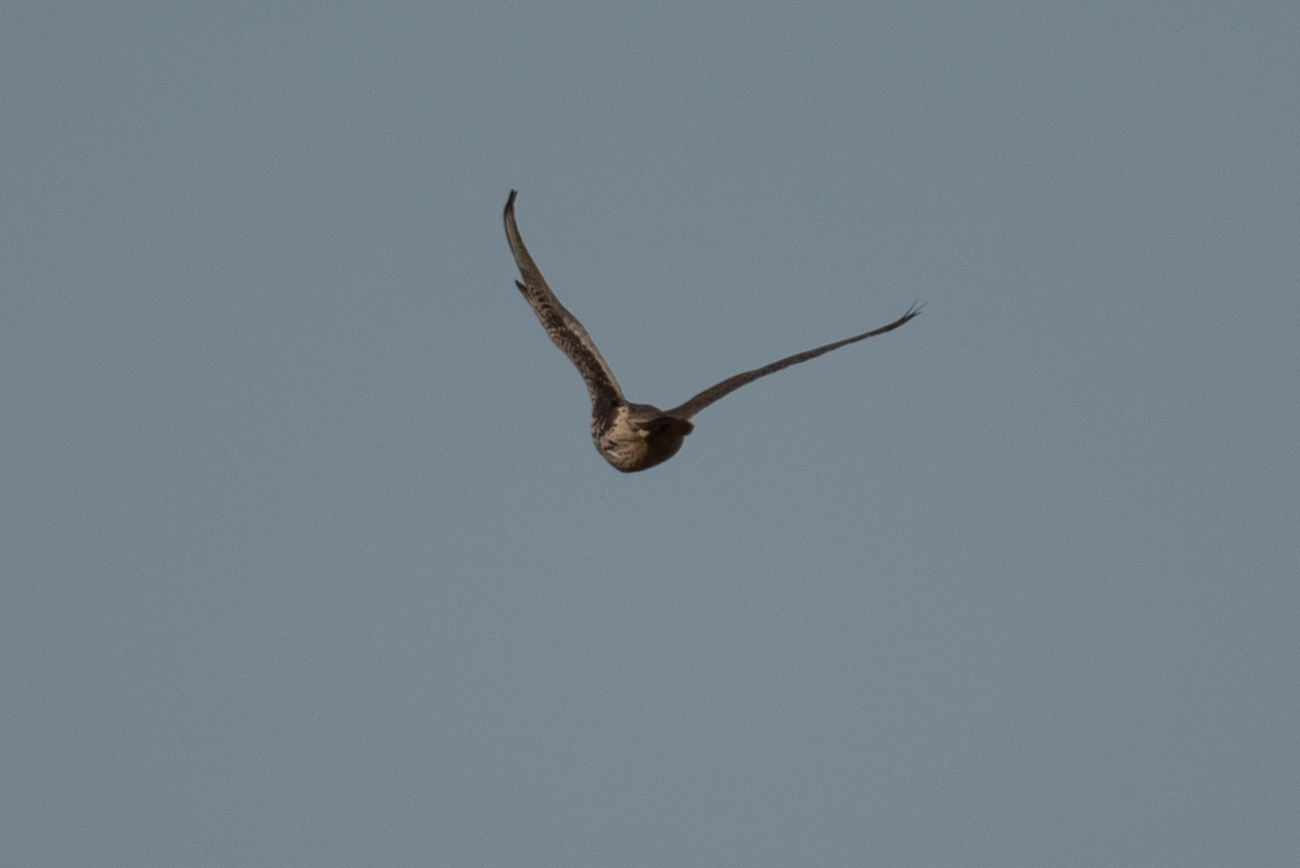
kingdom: Animalia
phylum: Chordata
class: Aves
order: Falconiformes
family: Falconidae
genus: Falco
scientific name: Falco mexicanus
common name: Prairie falcon
